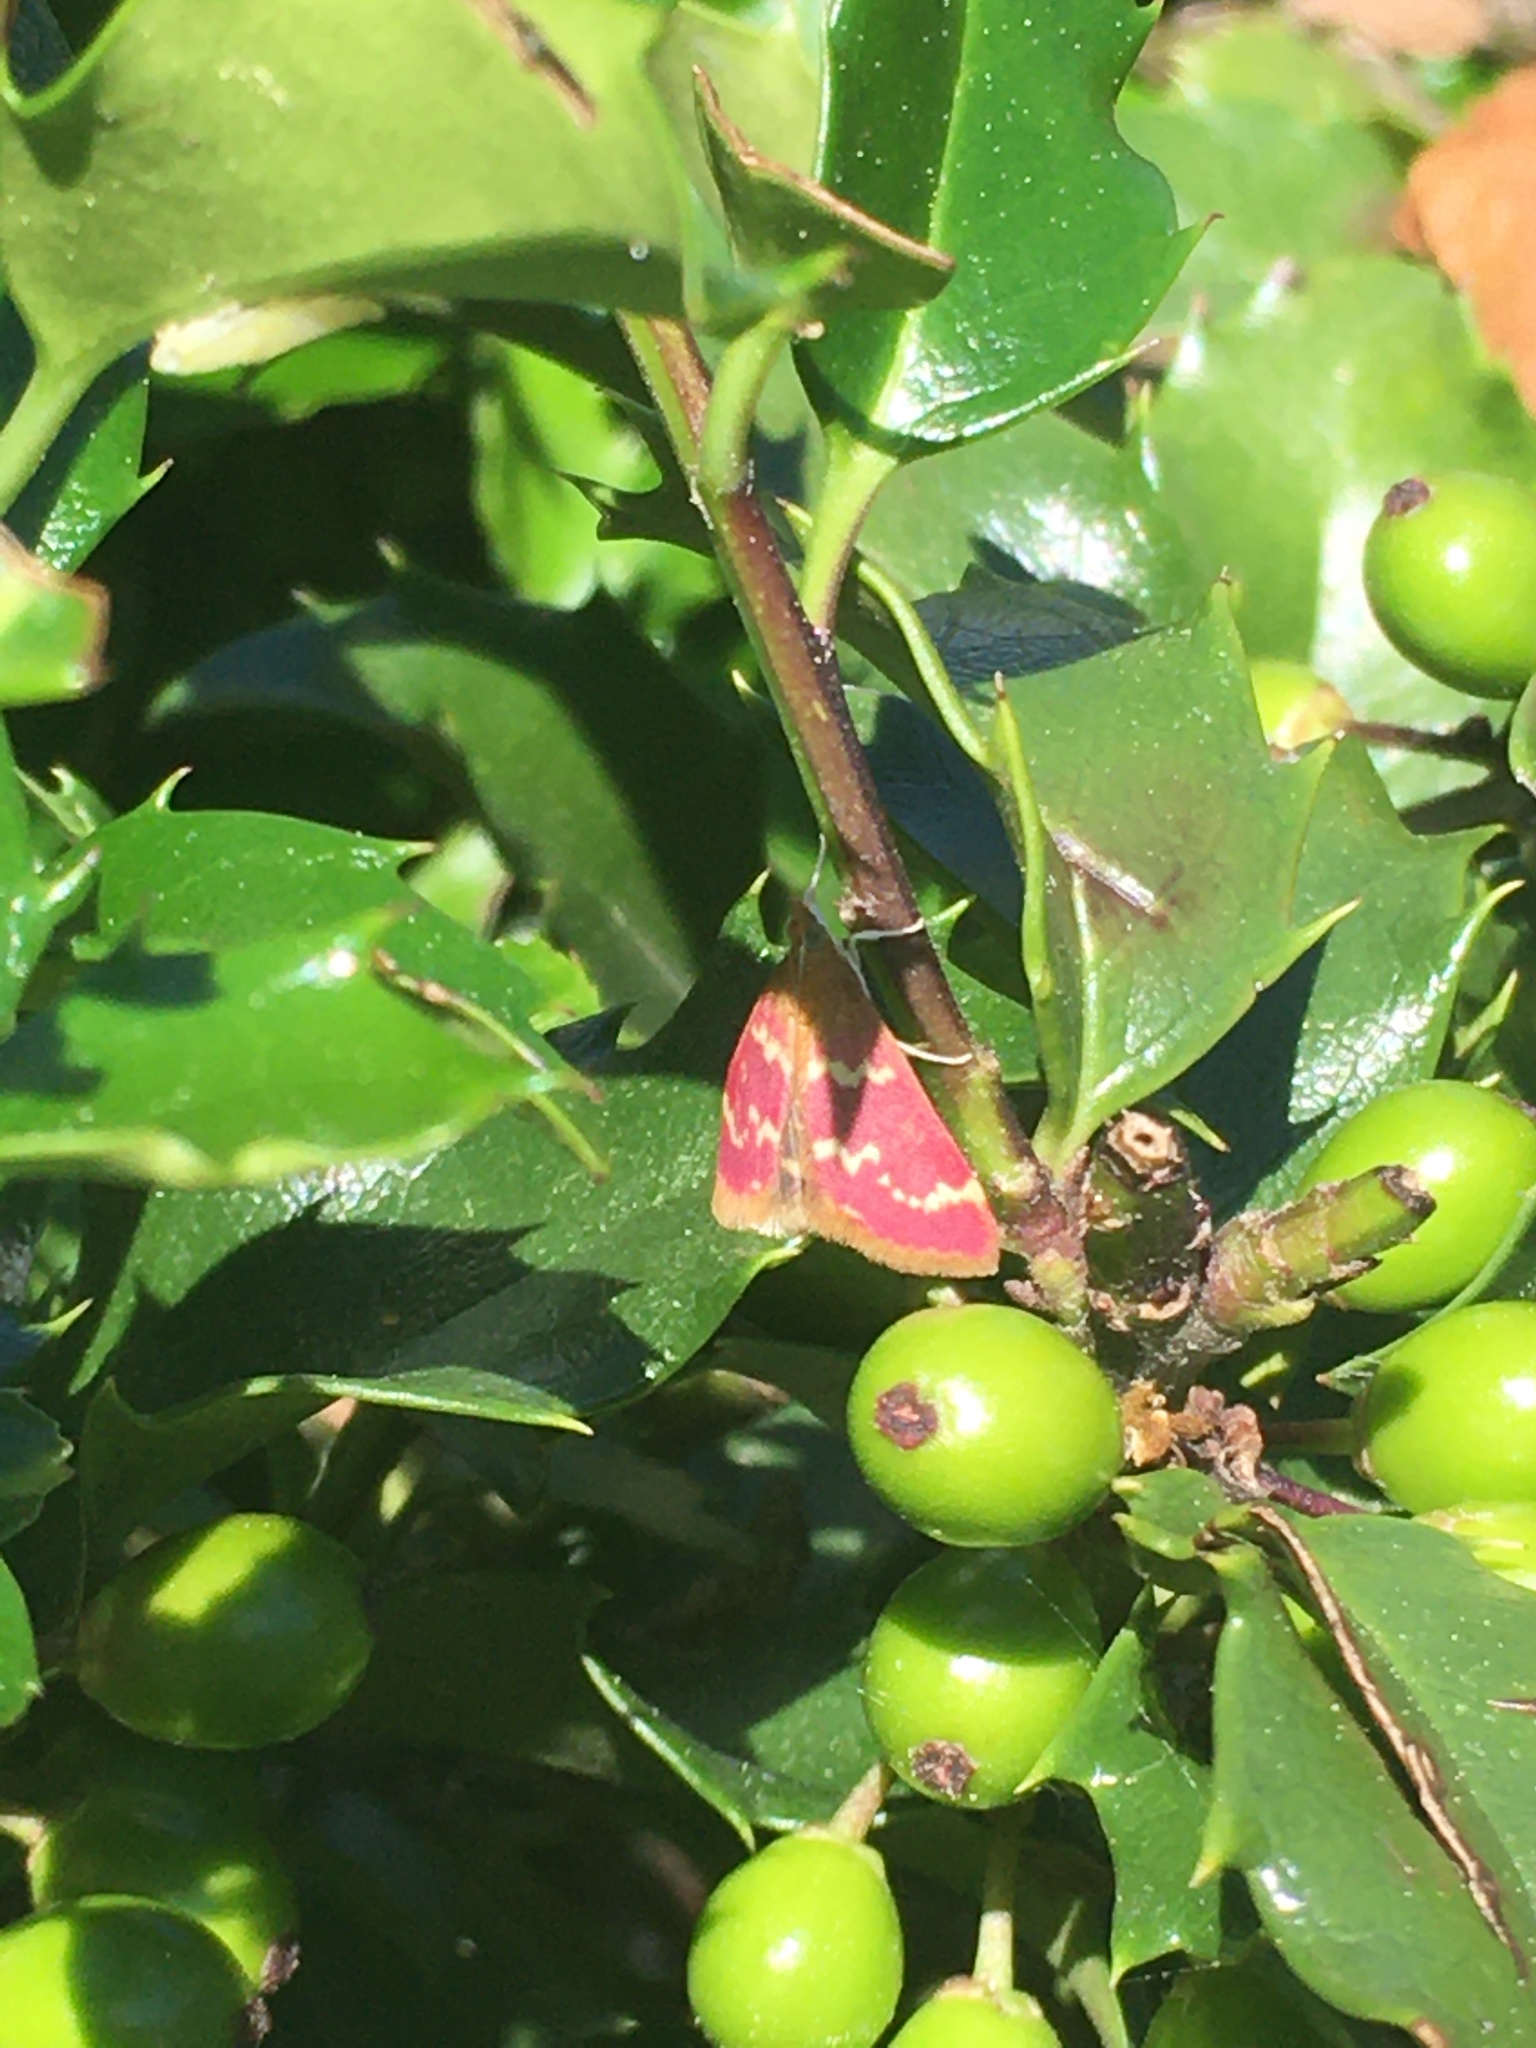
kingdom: Animalia
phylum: Arthropoda
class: Insecta
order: Lepidoptera
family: Crambidae
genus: Pyrausta
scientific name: Pyrausta signatalis
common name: Raspberry pyrausta moth
